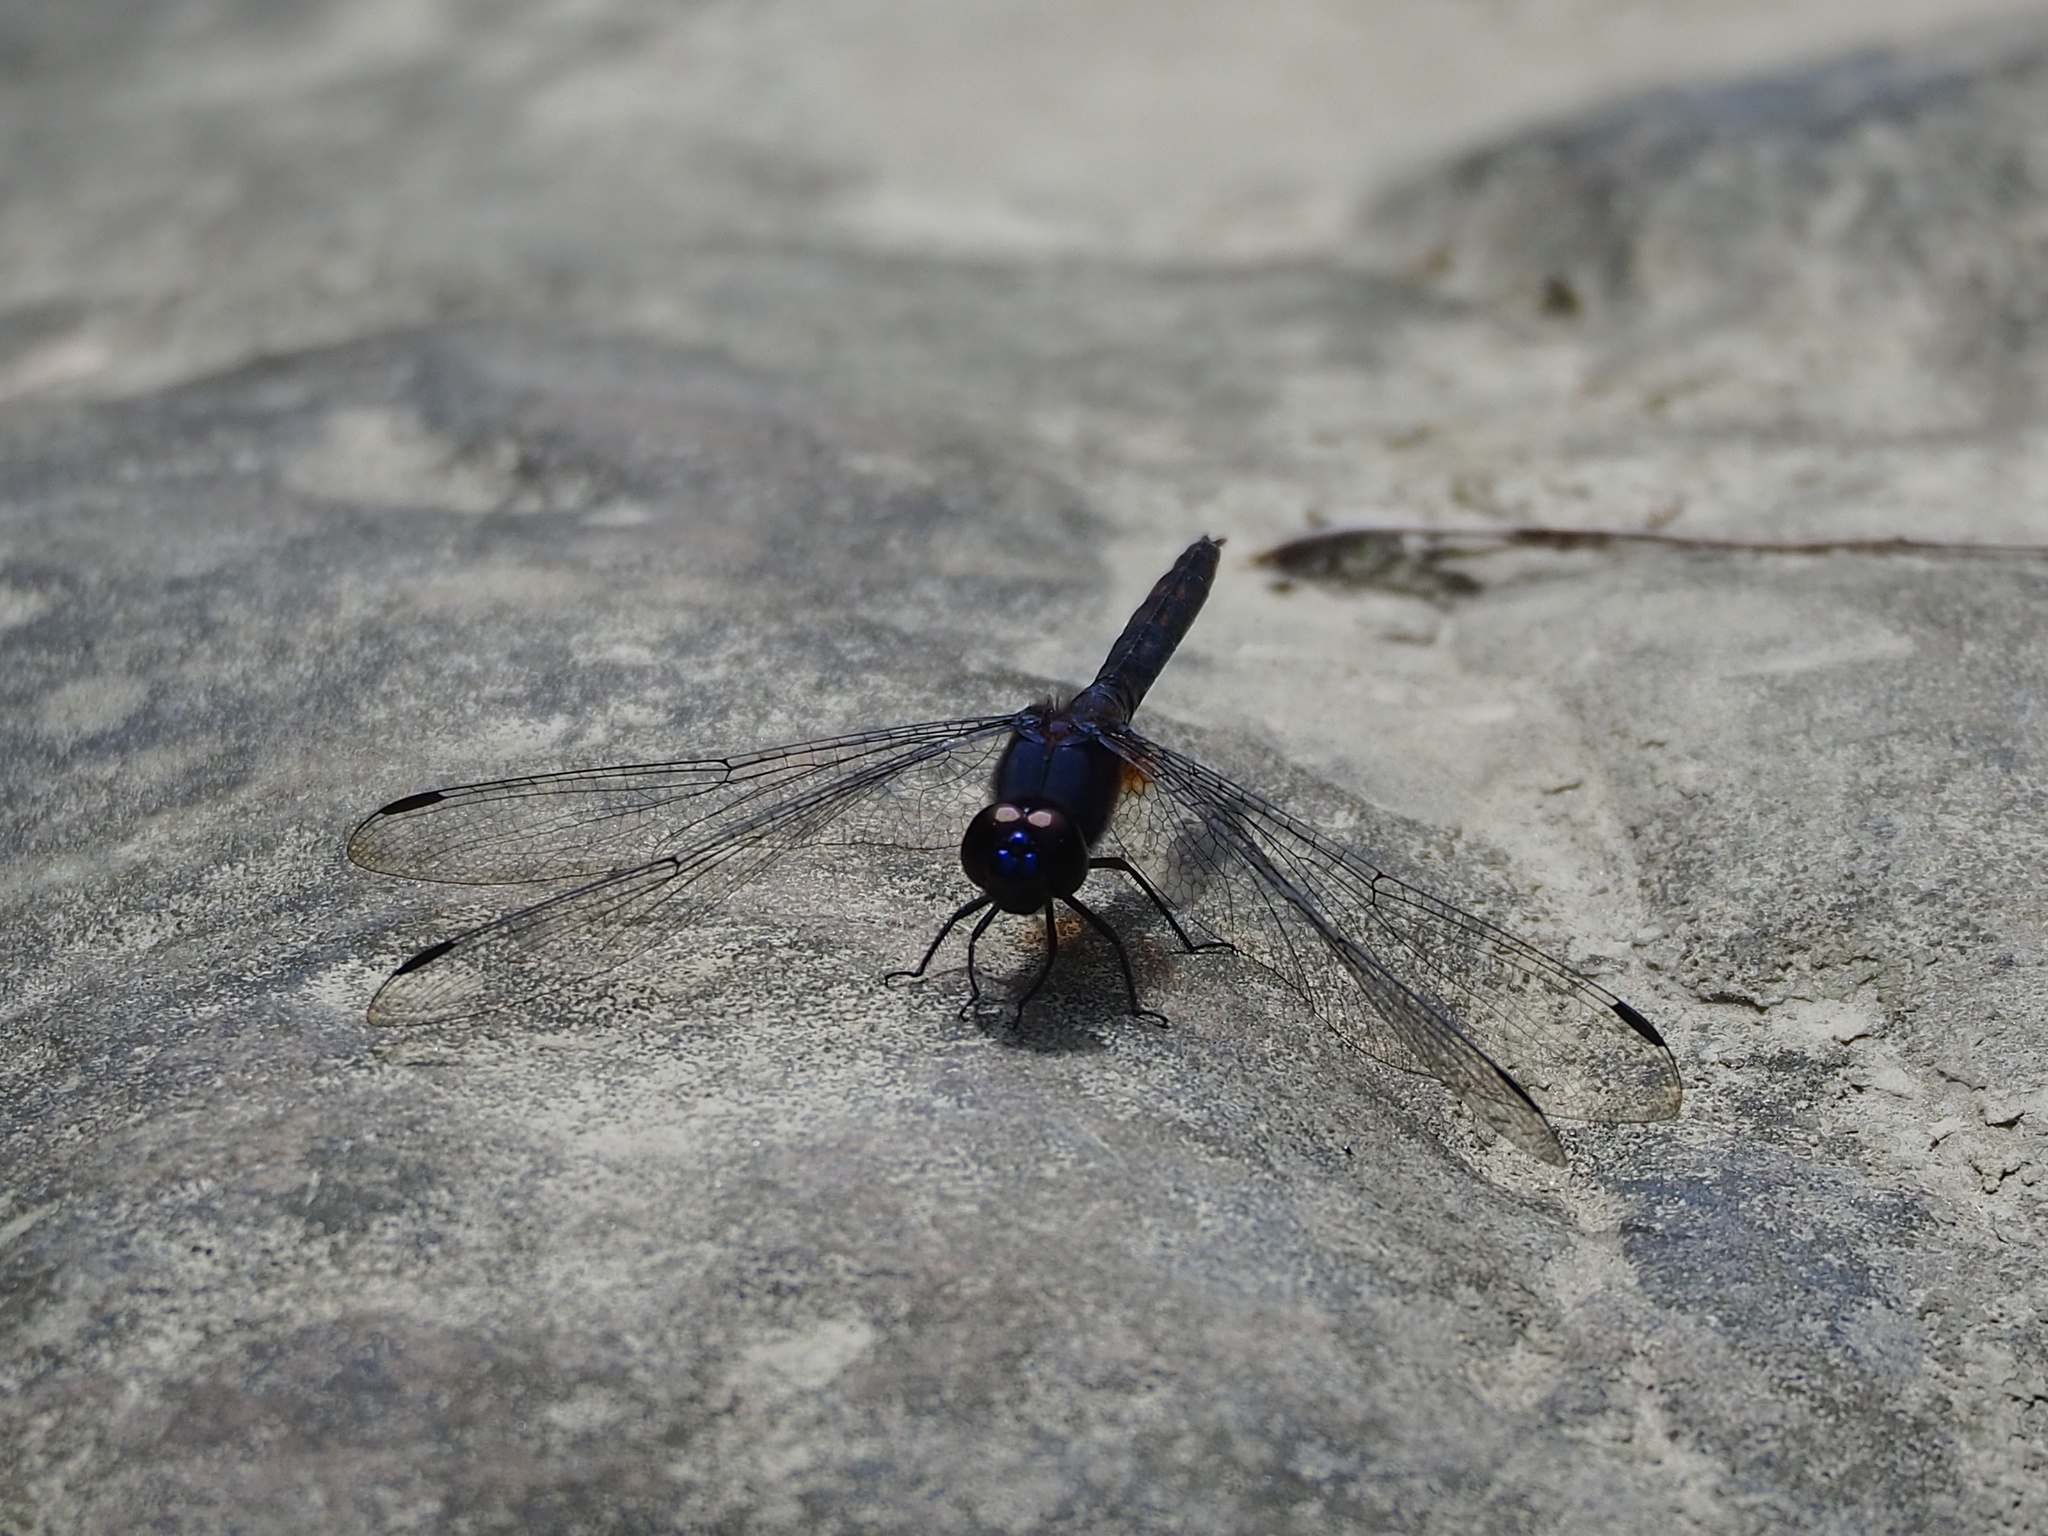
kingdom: Animalia
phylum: Arthropoda
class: Insecta
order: Odonata
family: Libellulidae
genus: Trithemis
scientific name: Trithemis festiva
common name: Indigo dropwing
